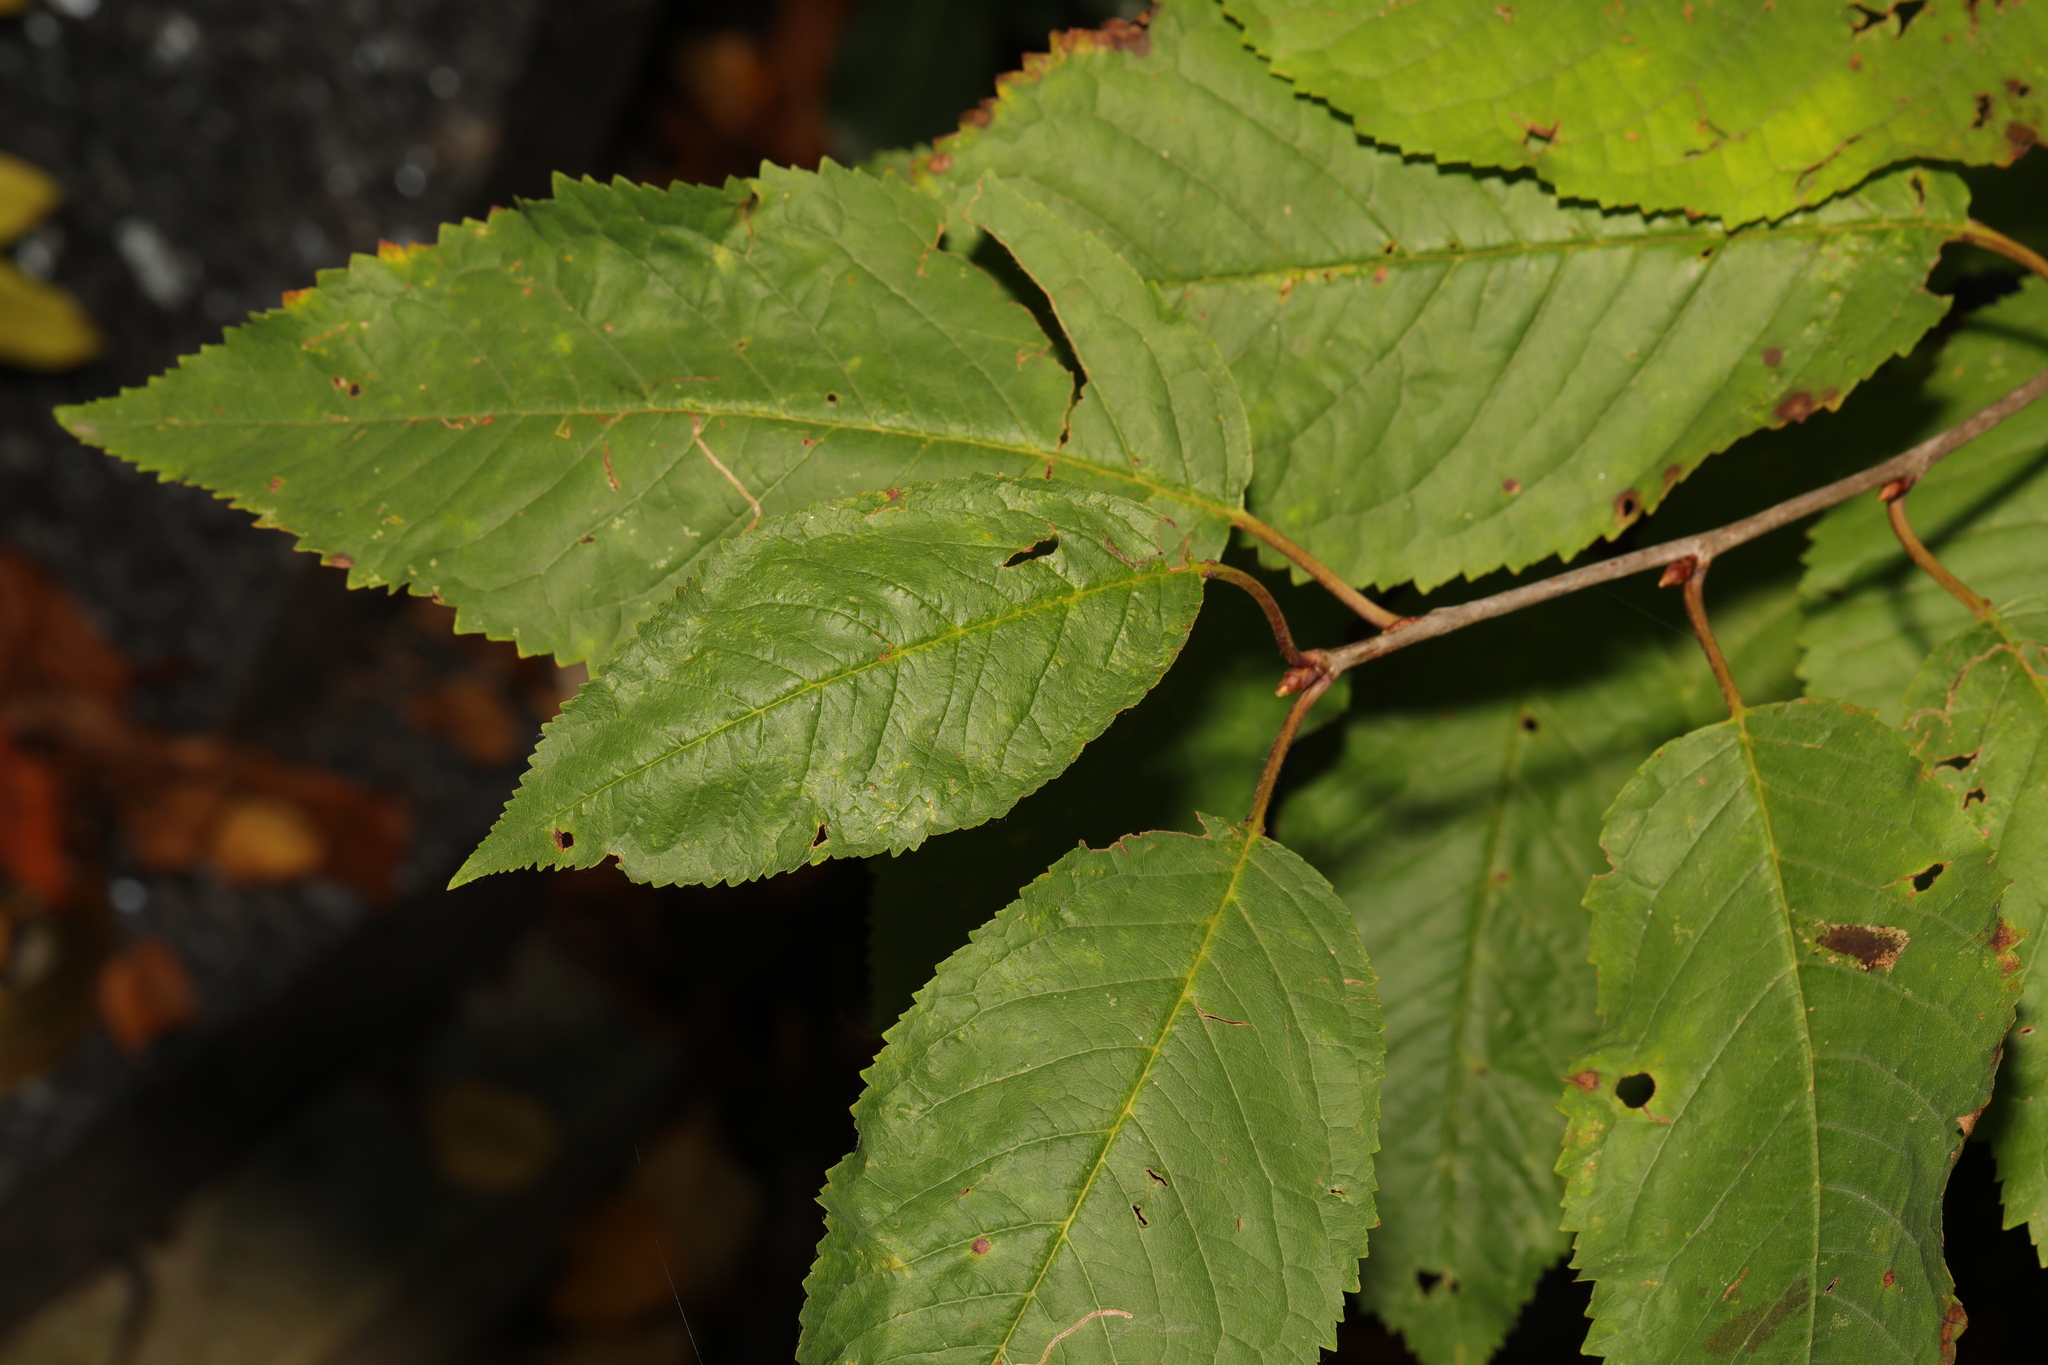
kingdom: Plantae
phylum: Tracheophyta
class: Magnoliopsida
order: Rosales
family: Rosaceae
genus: Prunus
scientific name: Prunus avium
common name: Sweet cherry
